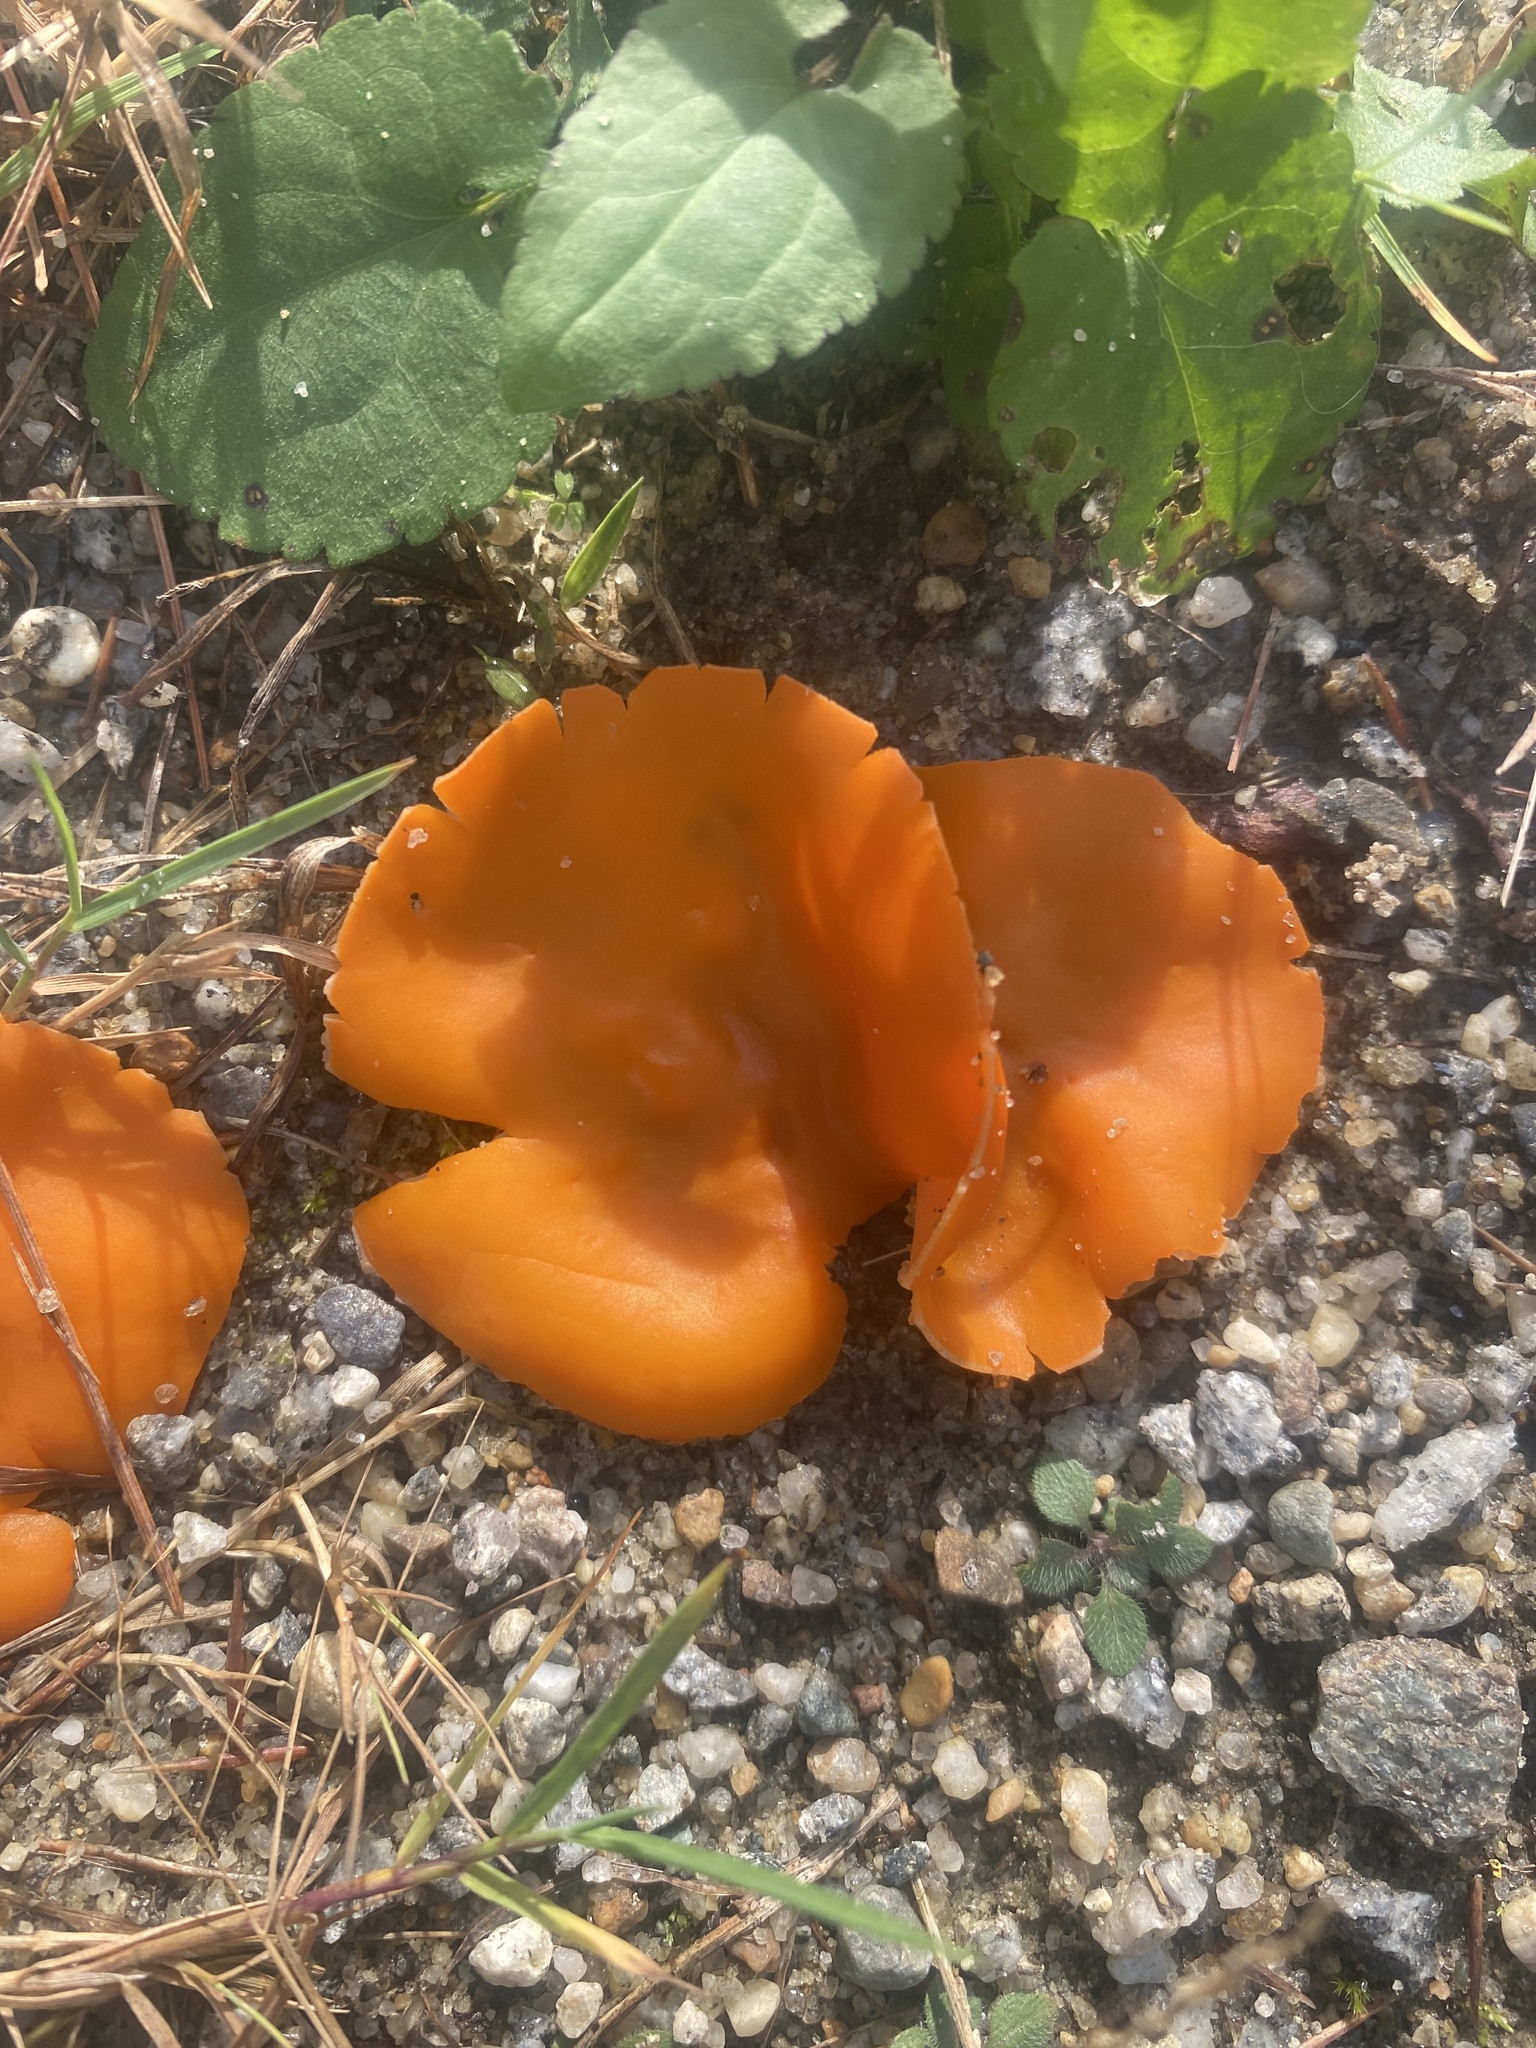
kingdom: Fungi
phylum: Ascomycota
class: Pezizomycetes
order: Pezizales
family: Pyronemataceae
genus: Aleuria
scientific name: Aleuria aurantia
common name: Orange peel fungus
